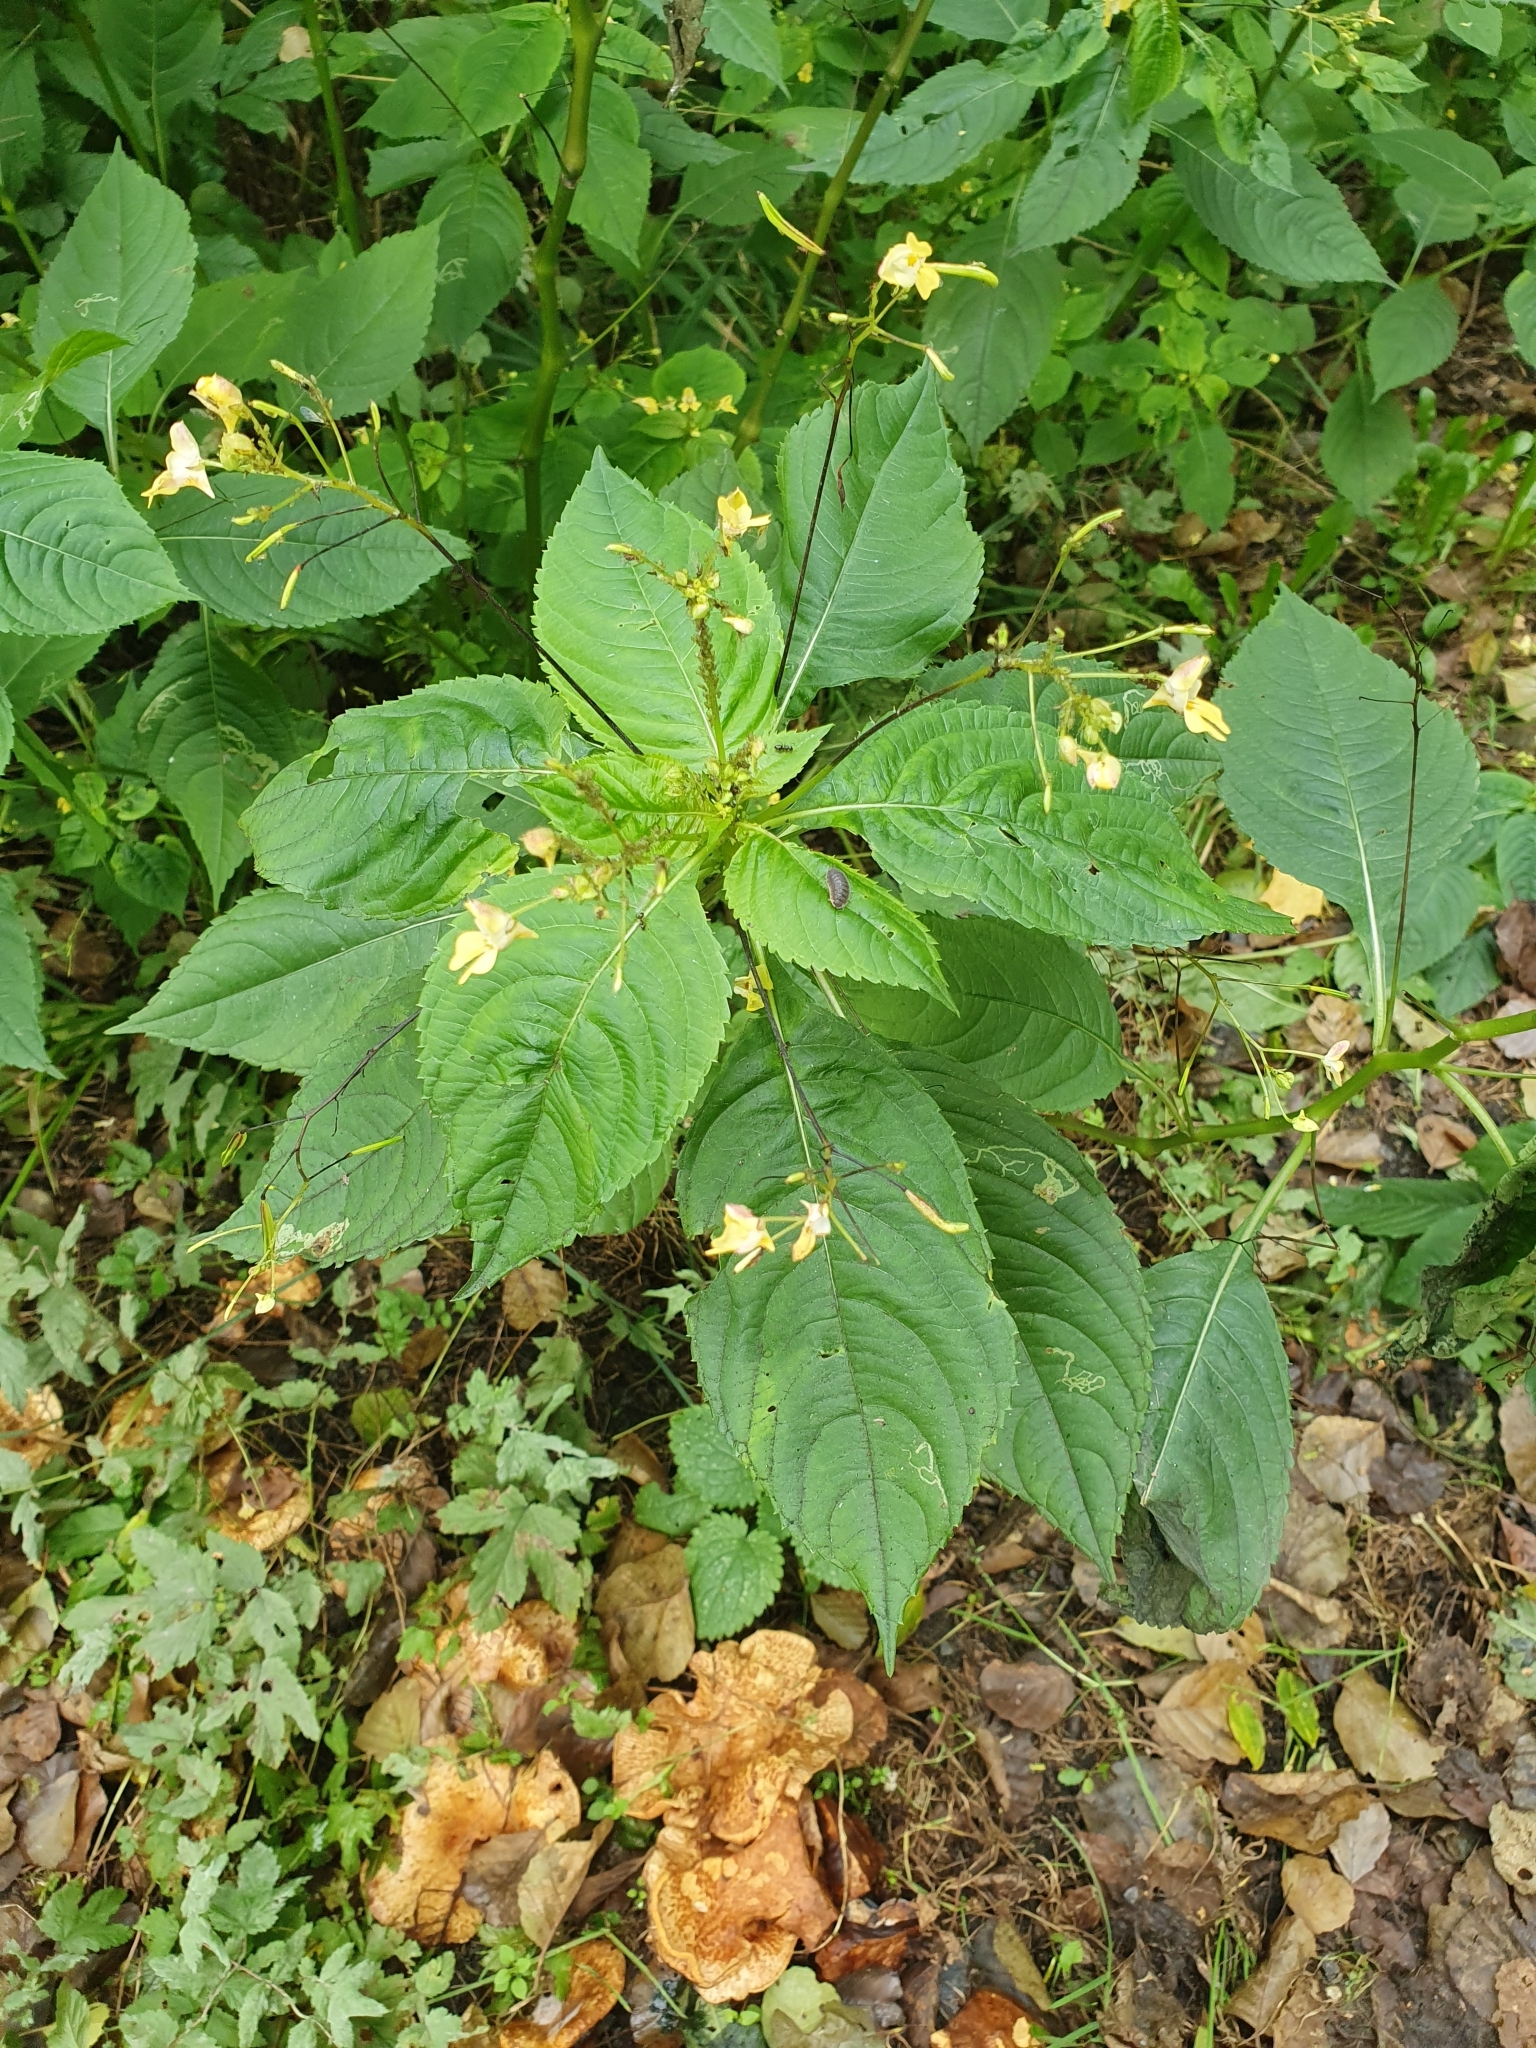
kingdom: Plantae
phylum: Tracheophyta
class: Magnoliopsida
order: Ericales
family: Balsaminaceae
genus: Impatiens
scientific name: Impatiens parviflora
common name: Small balsam
